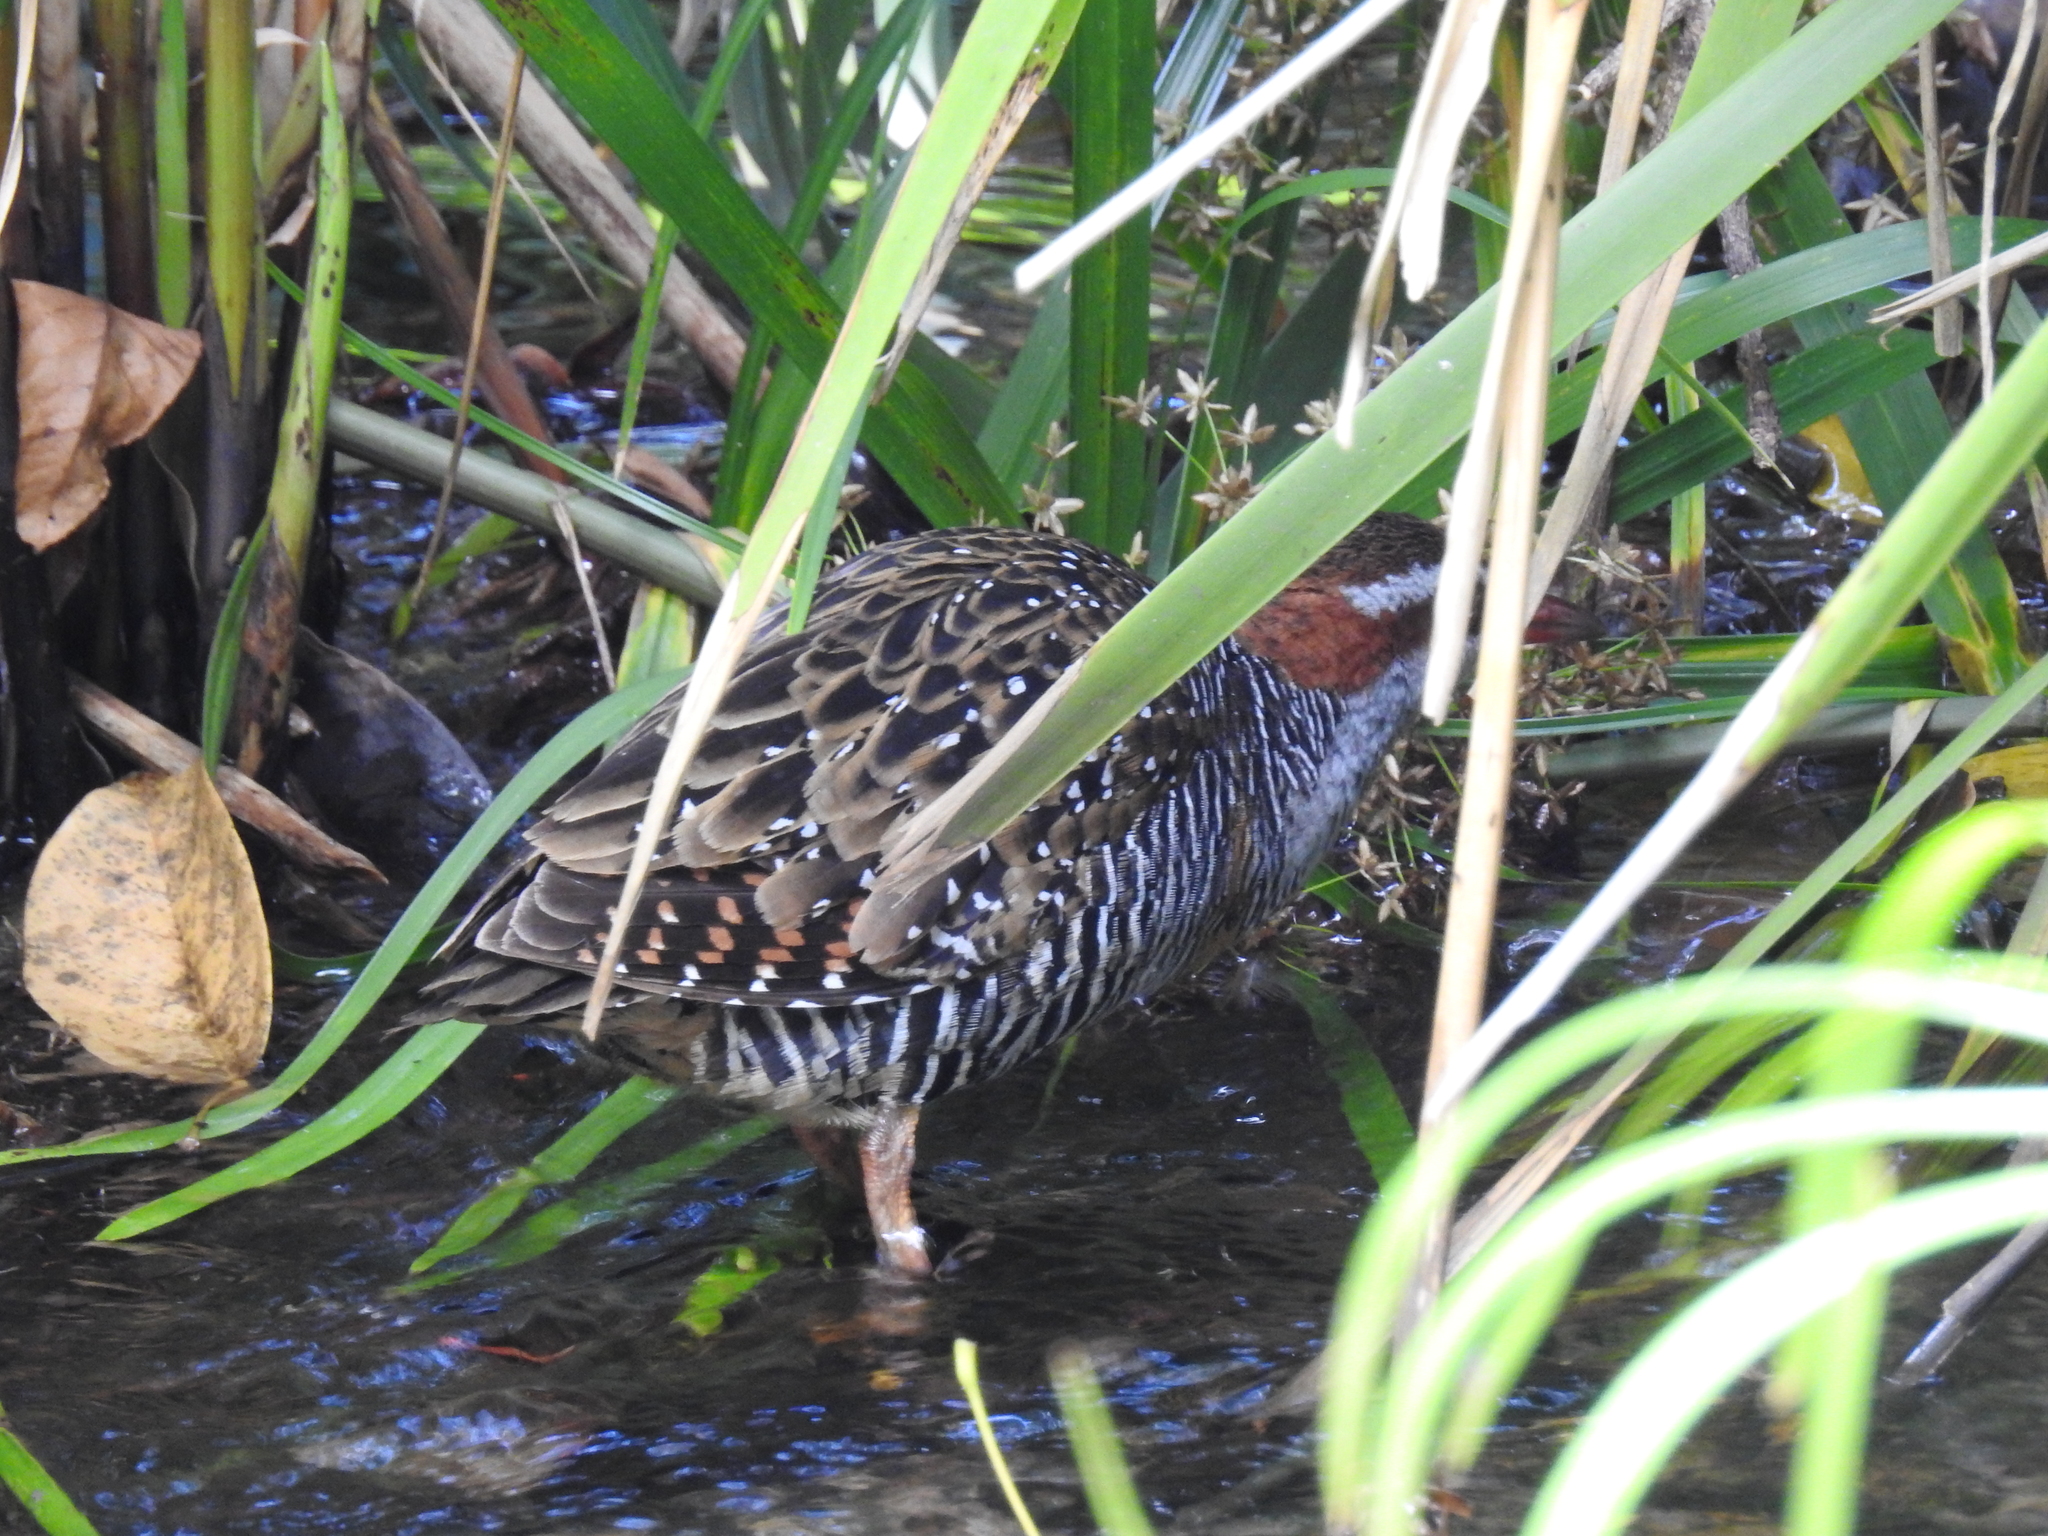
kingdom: Animalia
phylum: Chordata
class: Aves
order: Gruiformes
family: Rallidae
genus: Gallirallus
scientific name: Gallirallus philippensis
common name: Buff-banded rail
